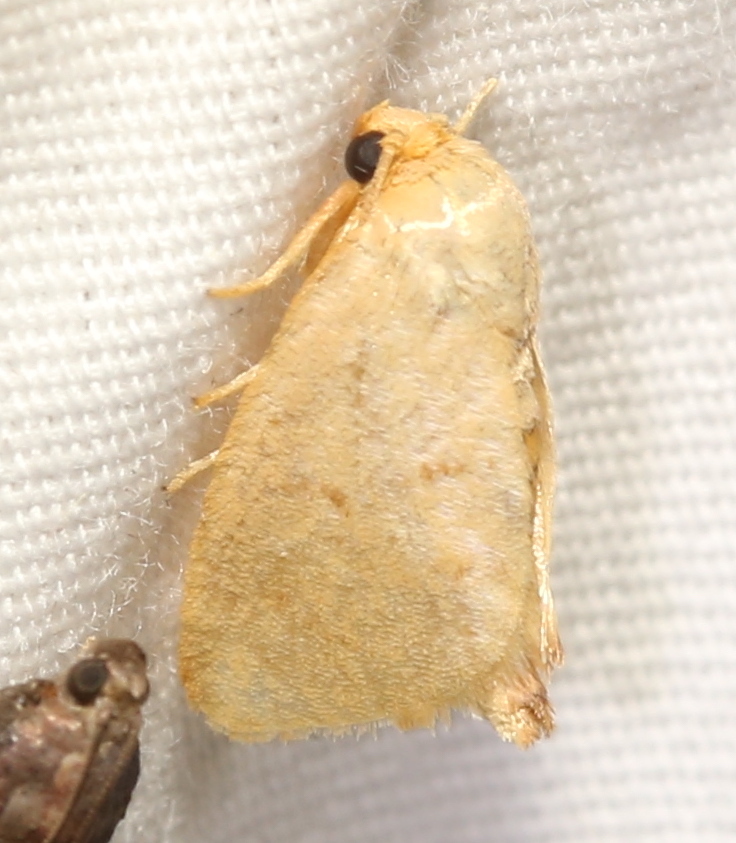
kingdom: Animalia
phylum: Arthropoda
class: Insecta
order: Lepidoptera
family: Limacodidae
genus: Tortricidia
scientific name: Tortricidia pallida
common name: Red-crossed button slug moth
